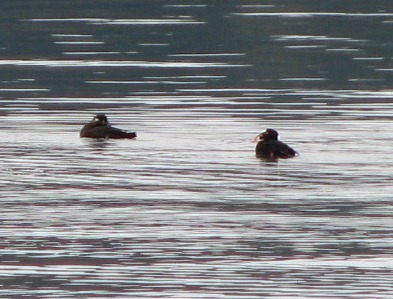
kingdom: Animalia
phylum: Chordata
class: Aves
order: Anseriformes
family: Anatidae
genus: Melanitta
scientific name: Melanitta perspicillata
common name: Surf scoter
